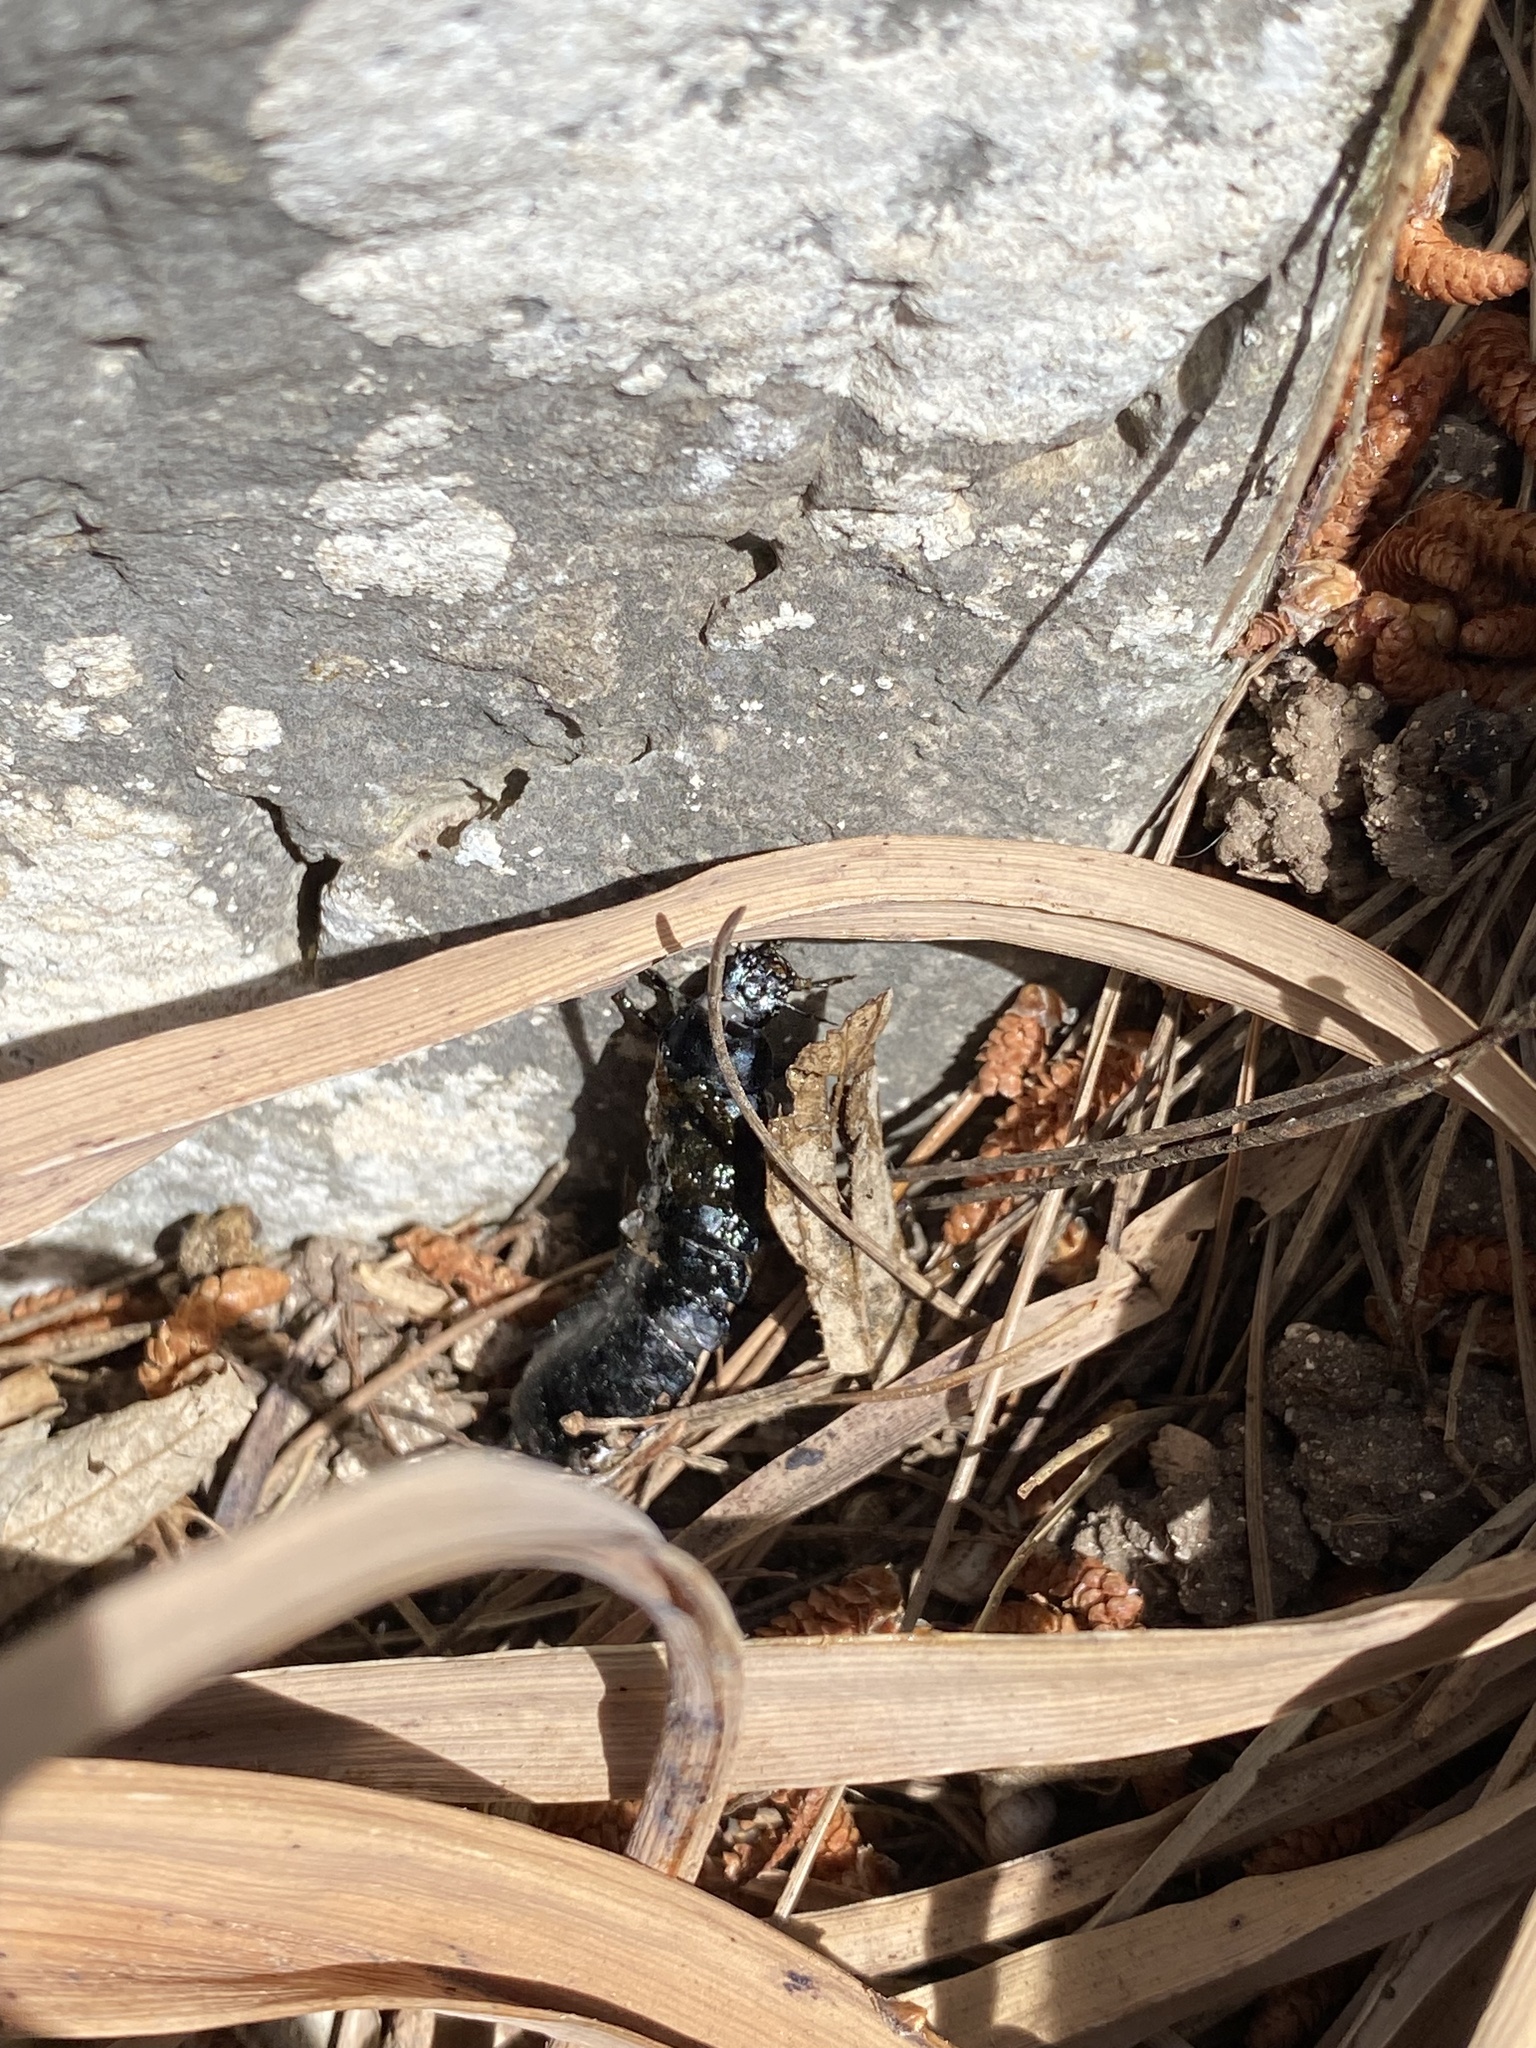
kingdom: Animalia
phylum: Arthropoda
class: Insecta
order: Coleoptera
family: Carabidae
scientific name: Carabidae
